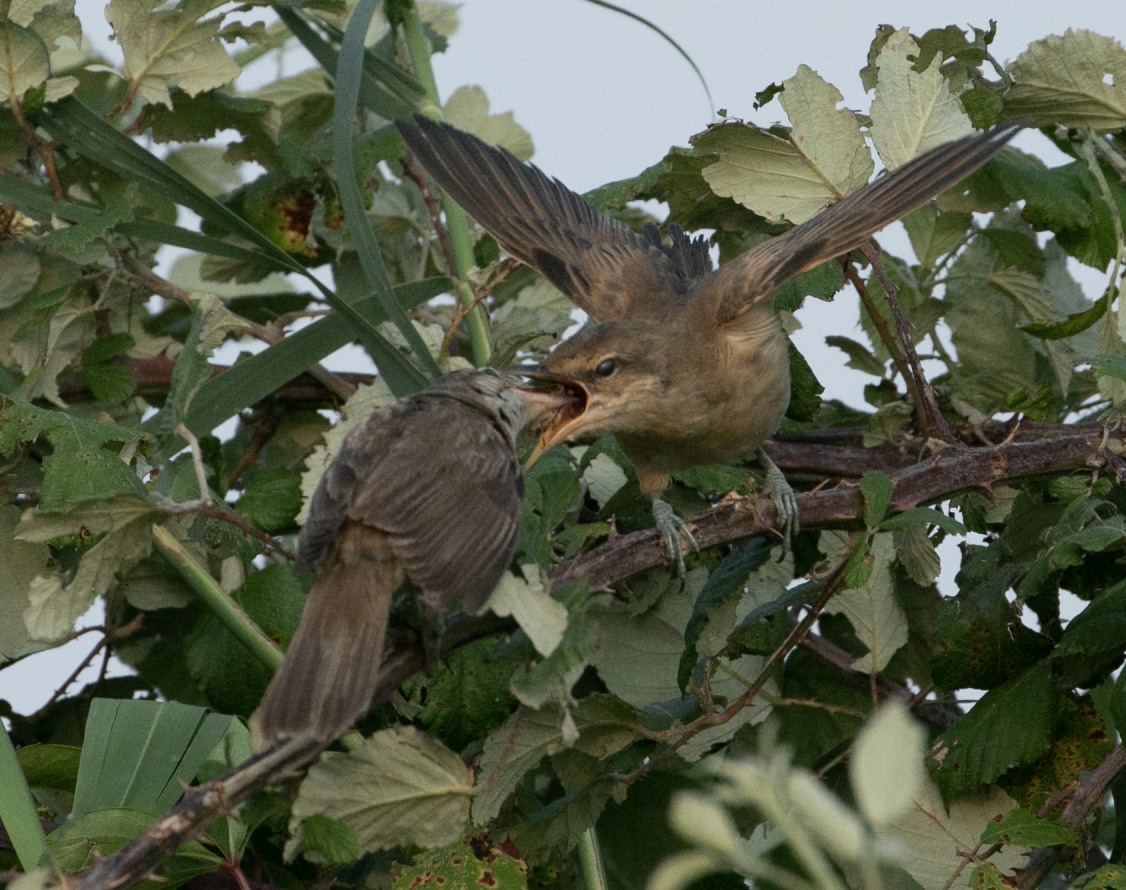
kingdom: Animalia
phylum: Chordata
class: Aves
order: Passeriformes
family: Acrocephalidae
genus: Acrocephalus
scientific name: Acrocephalus arundinaceus
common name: Great reed warbler
